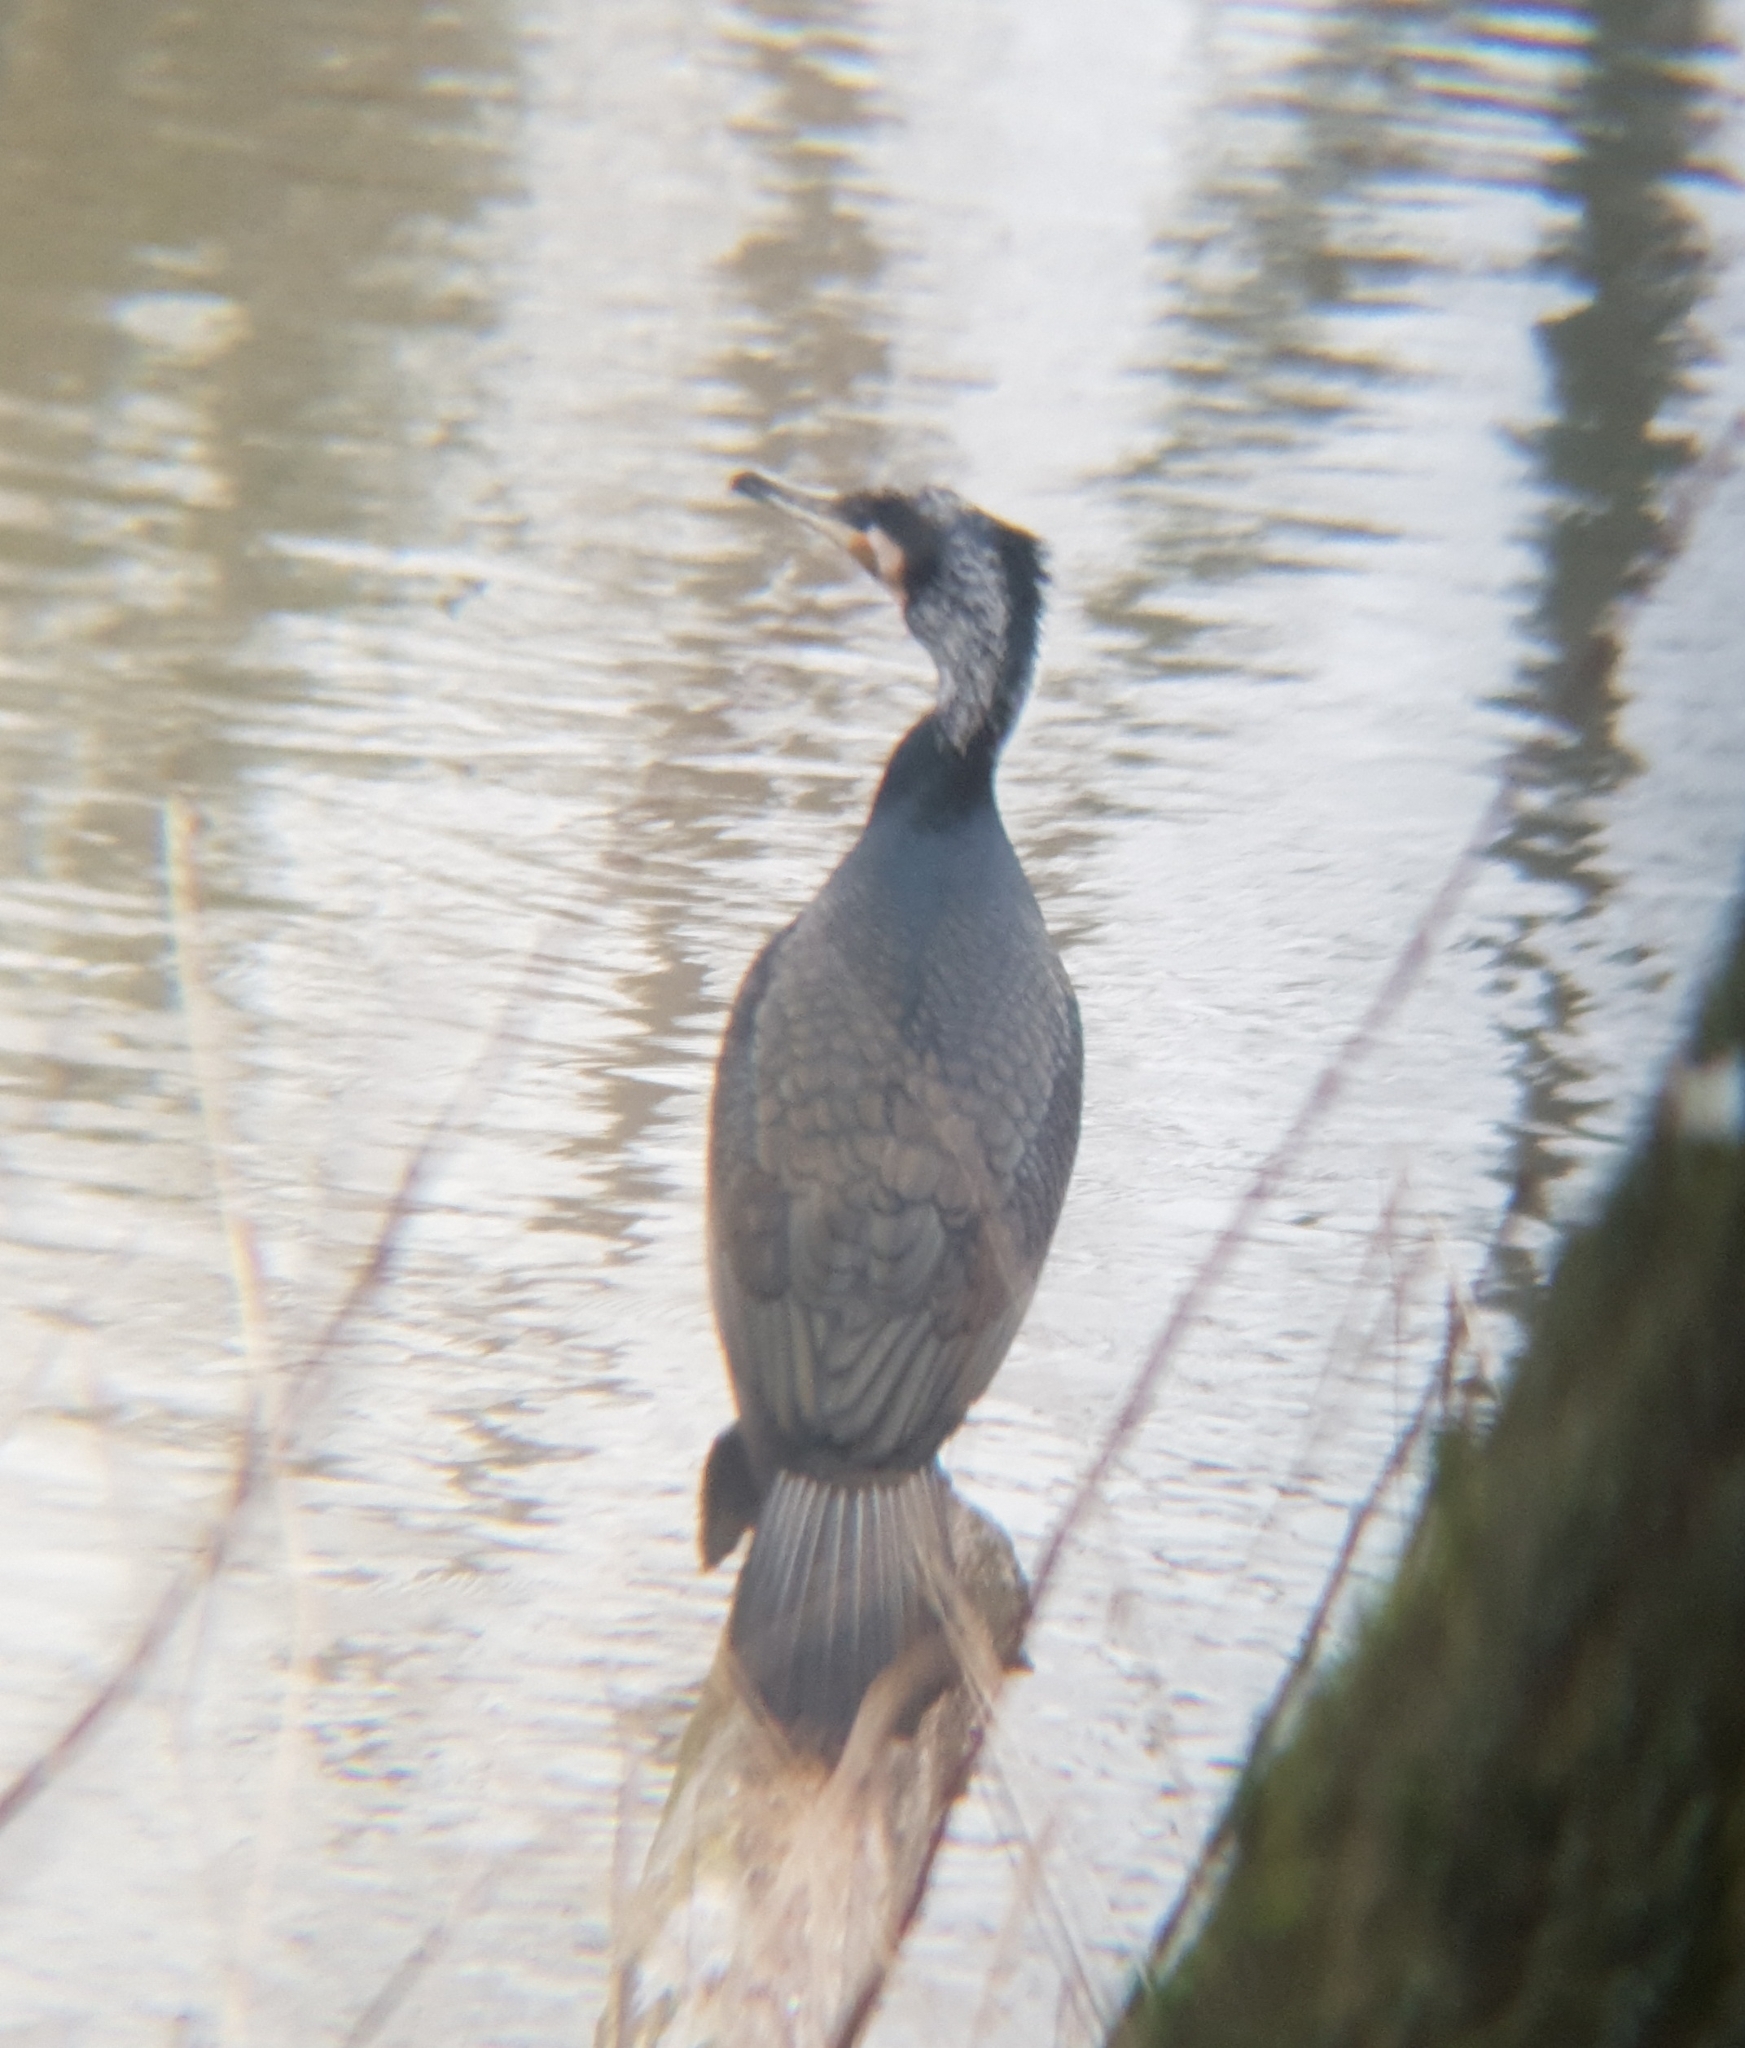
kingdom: Animalia
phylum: Chordata
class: Aves
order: Suliformes
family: Phalacrocoracidae
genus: Phalacrocorax
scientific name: Phalacrocorax carbo
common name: Great cormorant
